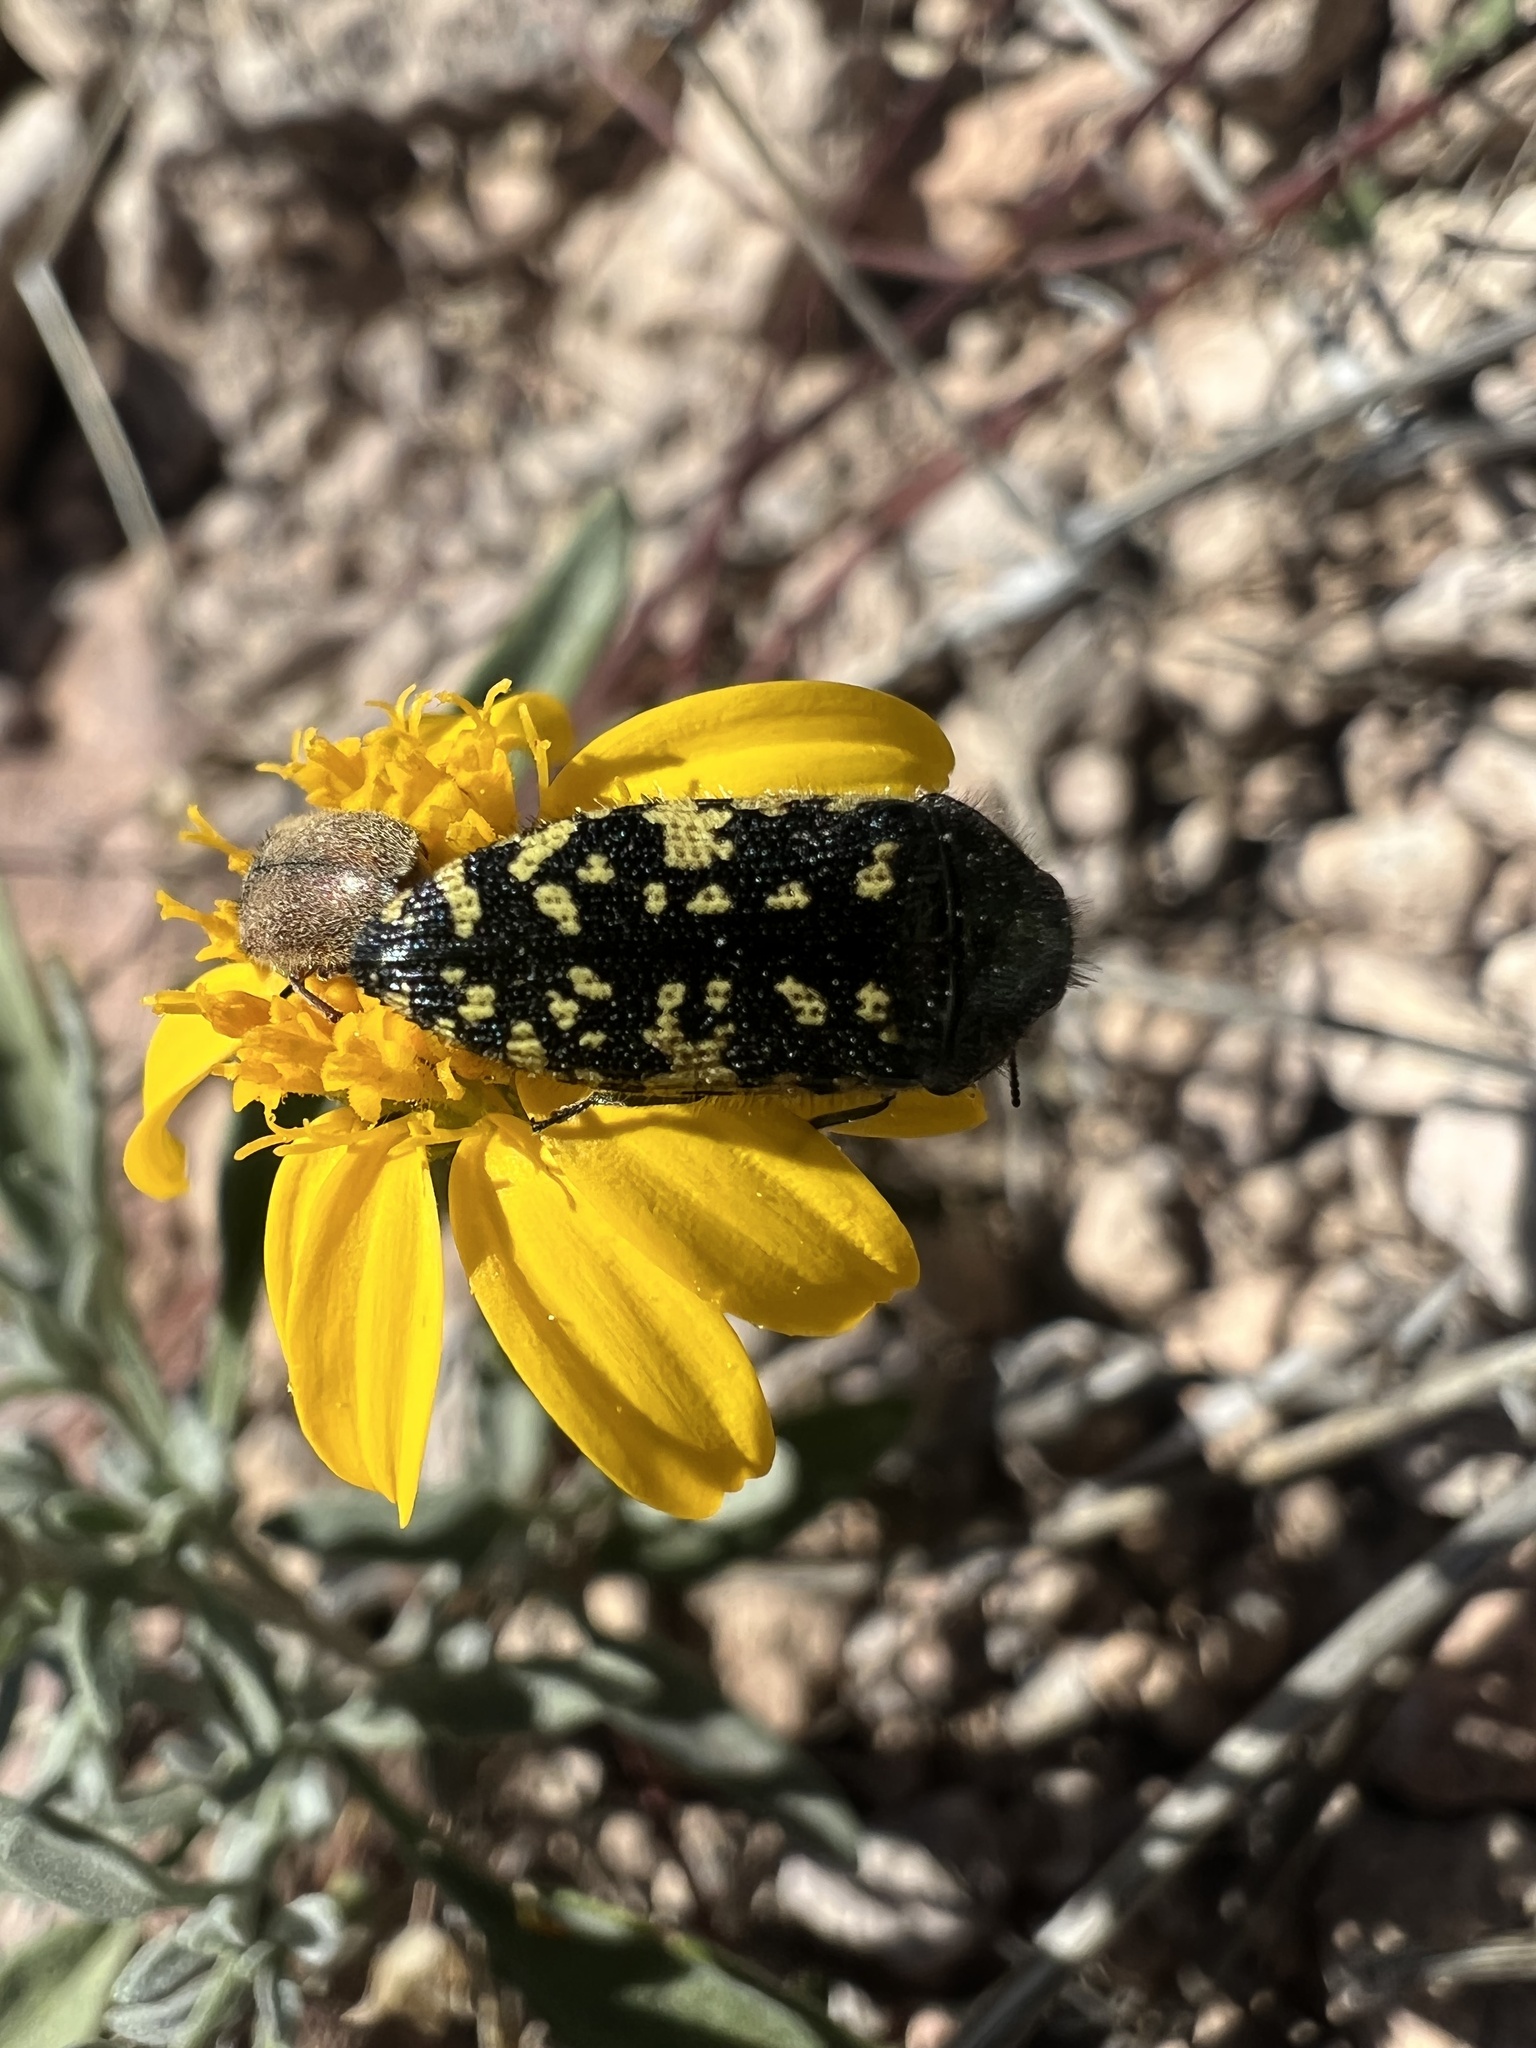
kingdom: Animalia
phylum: Arthropoda
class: Insecta
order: Coleoptera
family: Buprestidae
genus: Acmaeodera
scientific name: Acmaeodera flavopicta
